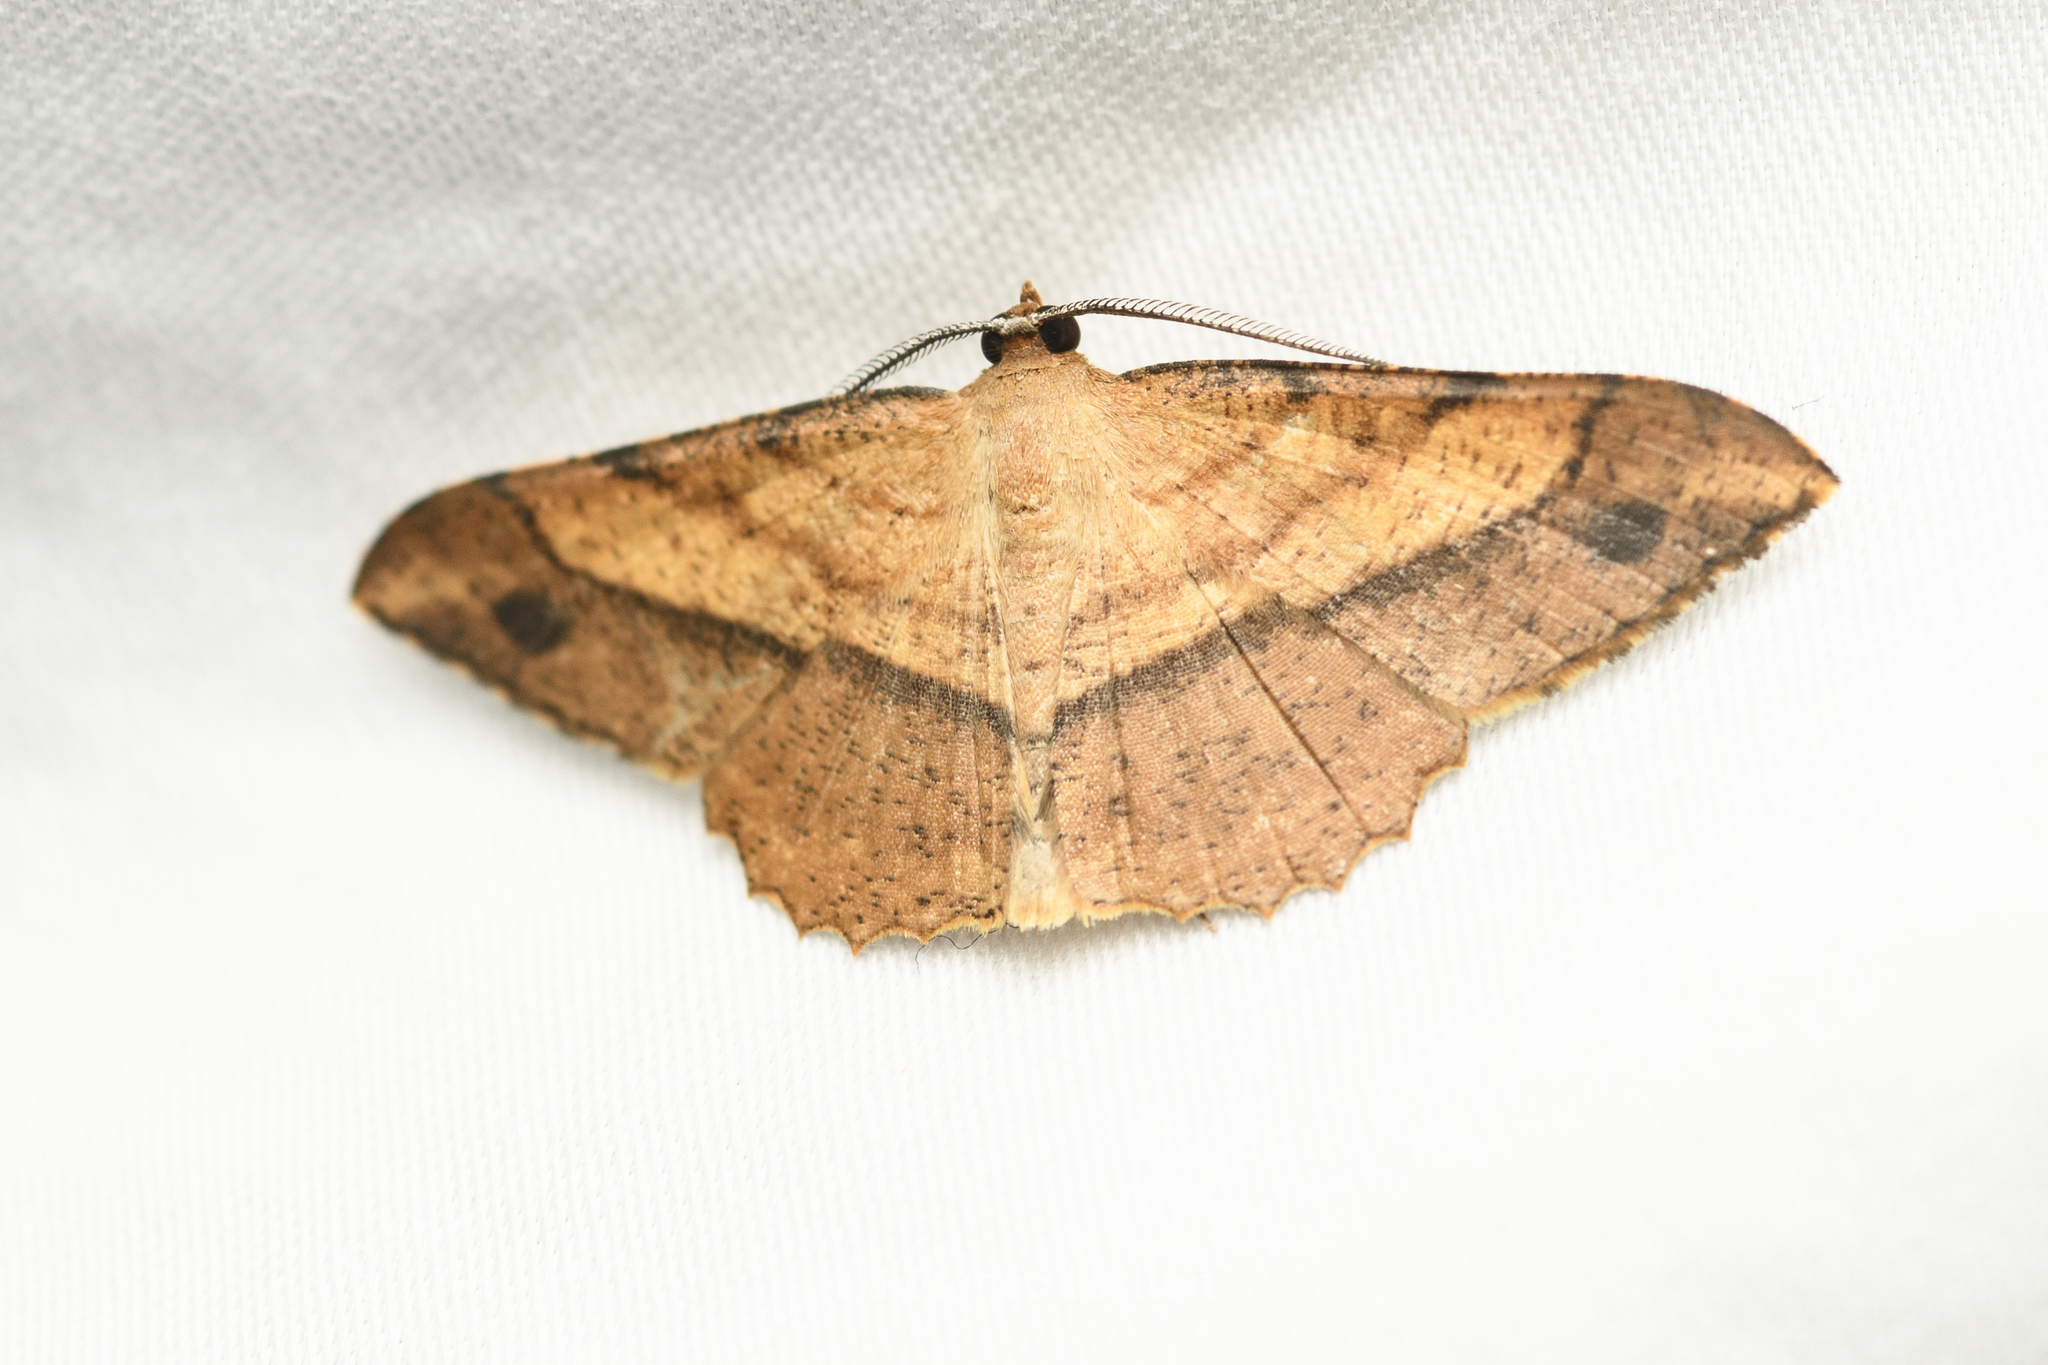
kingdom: Animalia
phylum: Arthropoda
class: Insecta
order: Lepidoptera
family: Geometridae
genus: Pseudonadagara
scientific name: Pseudonadagara semicolor
